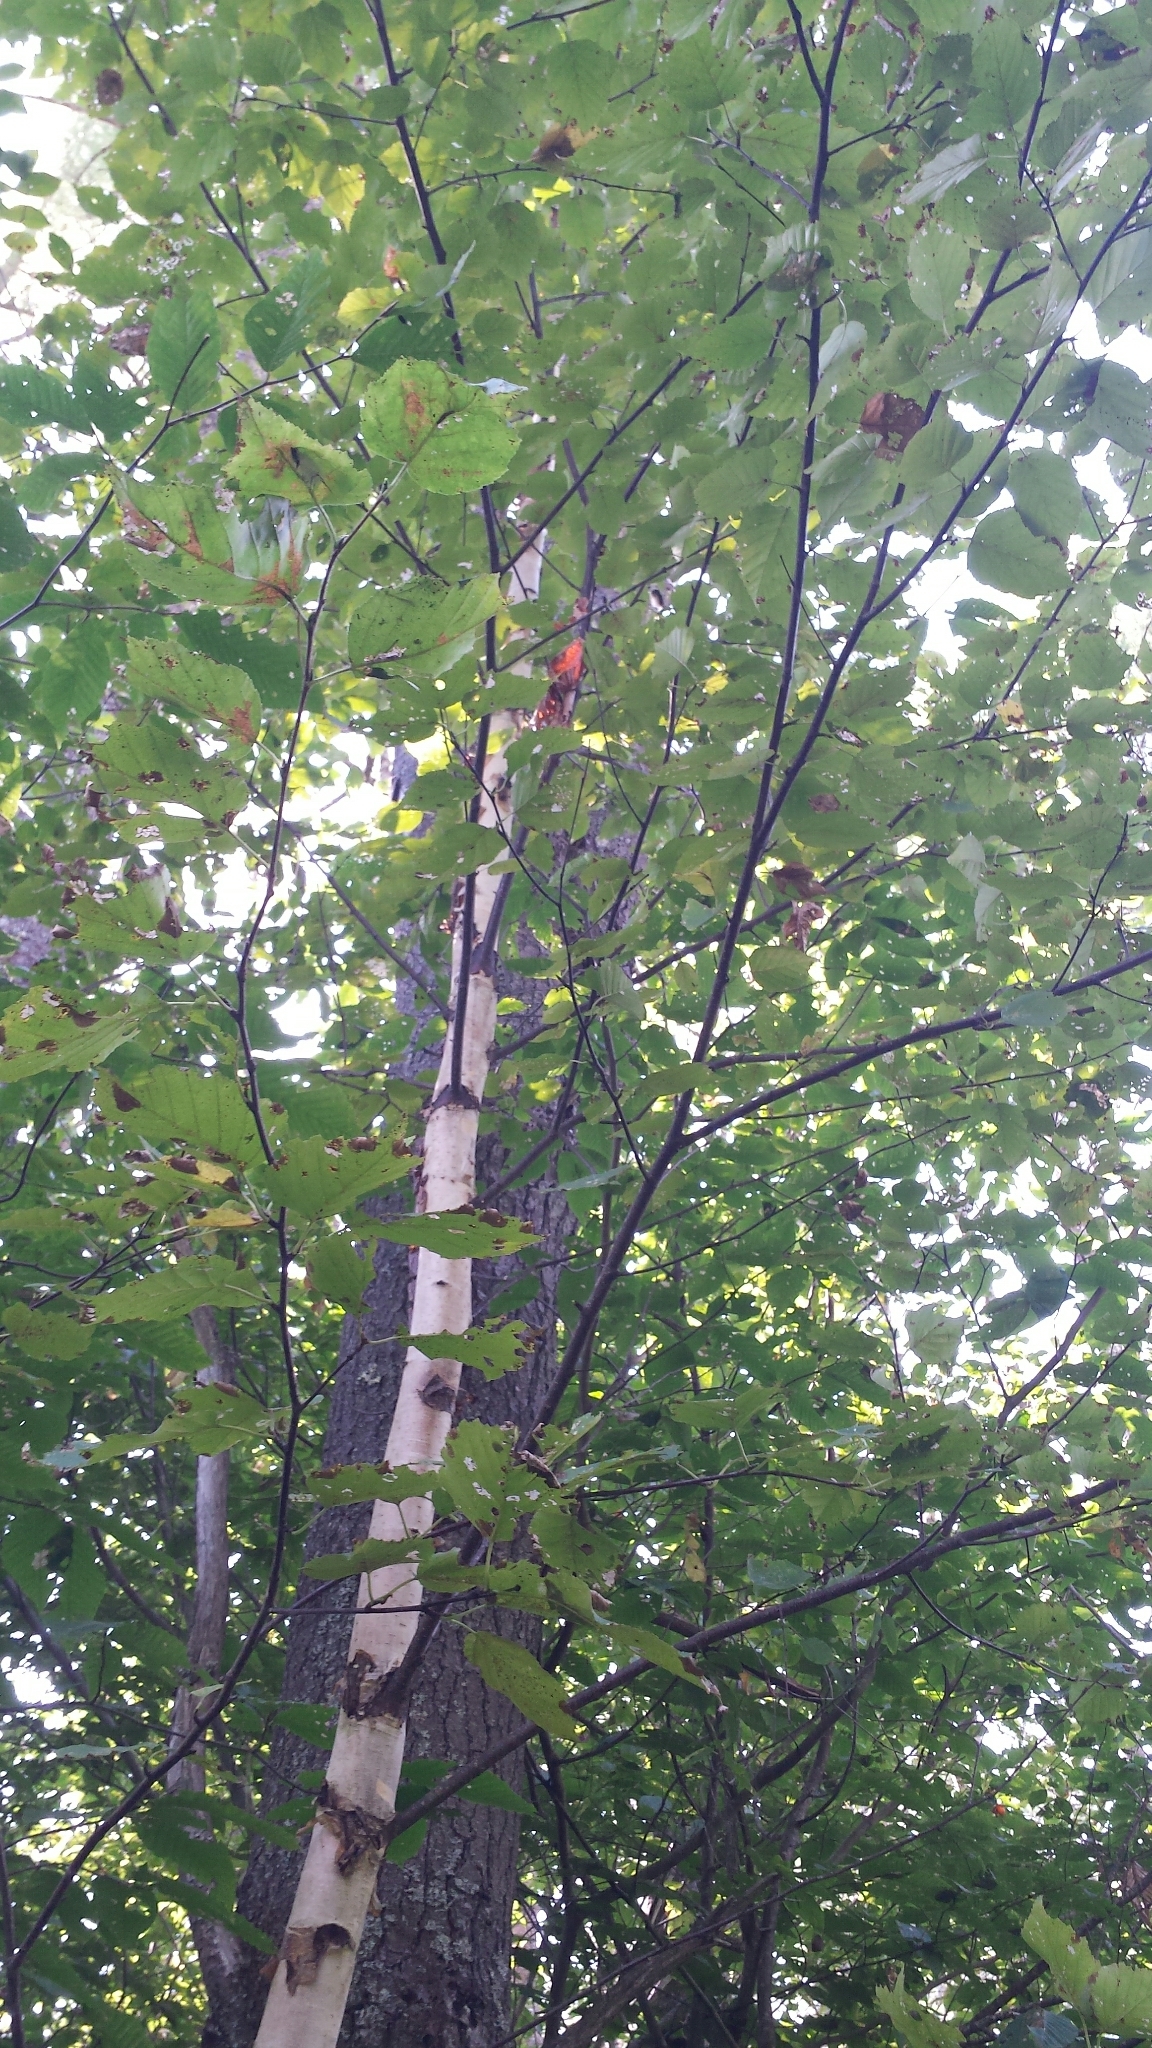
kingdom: Plantae
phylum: Tracheophyta
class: Magnoliopsida
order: Fagales
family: Betulaceae
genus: Betula
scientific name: Betula papyrifera
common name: Paper birch
